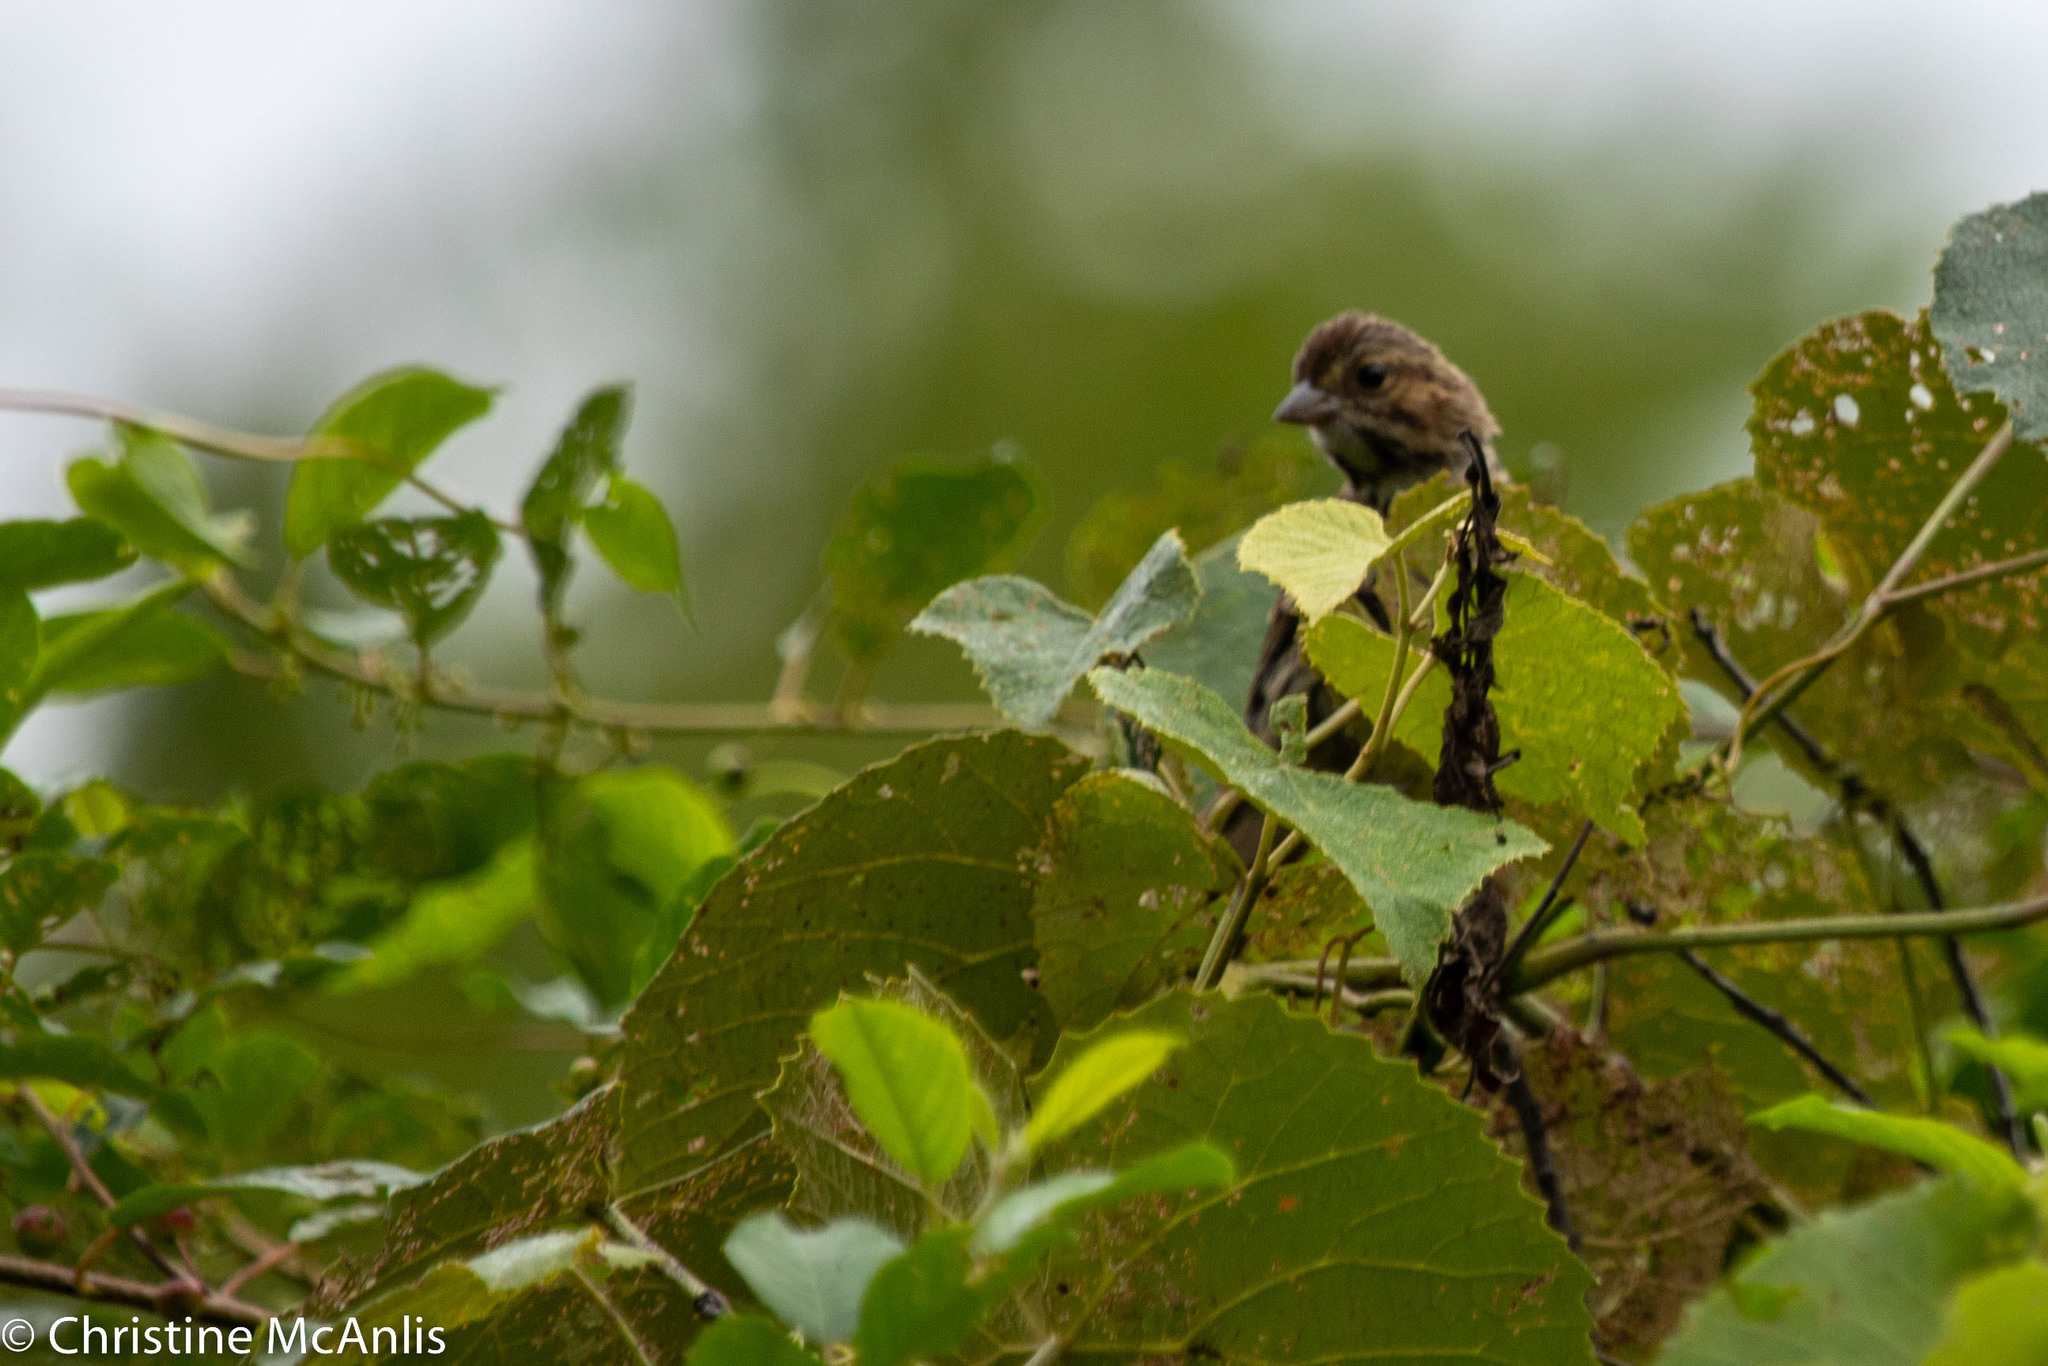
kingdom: Animalia
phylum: Chordata
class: Aves
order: Passeriformes
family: Passerellidae
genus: Melospiza
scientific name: Melospiza melodia
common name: Song sparrow
